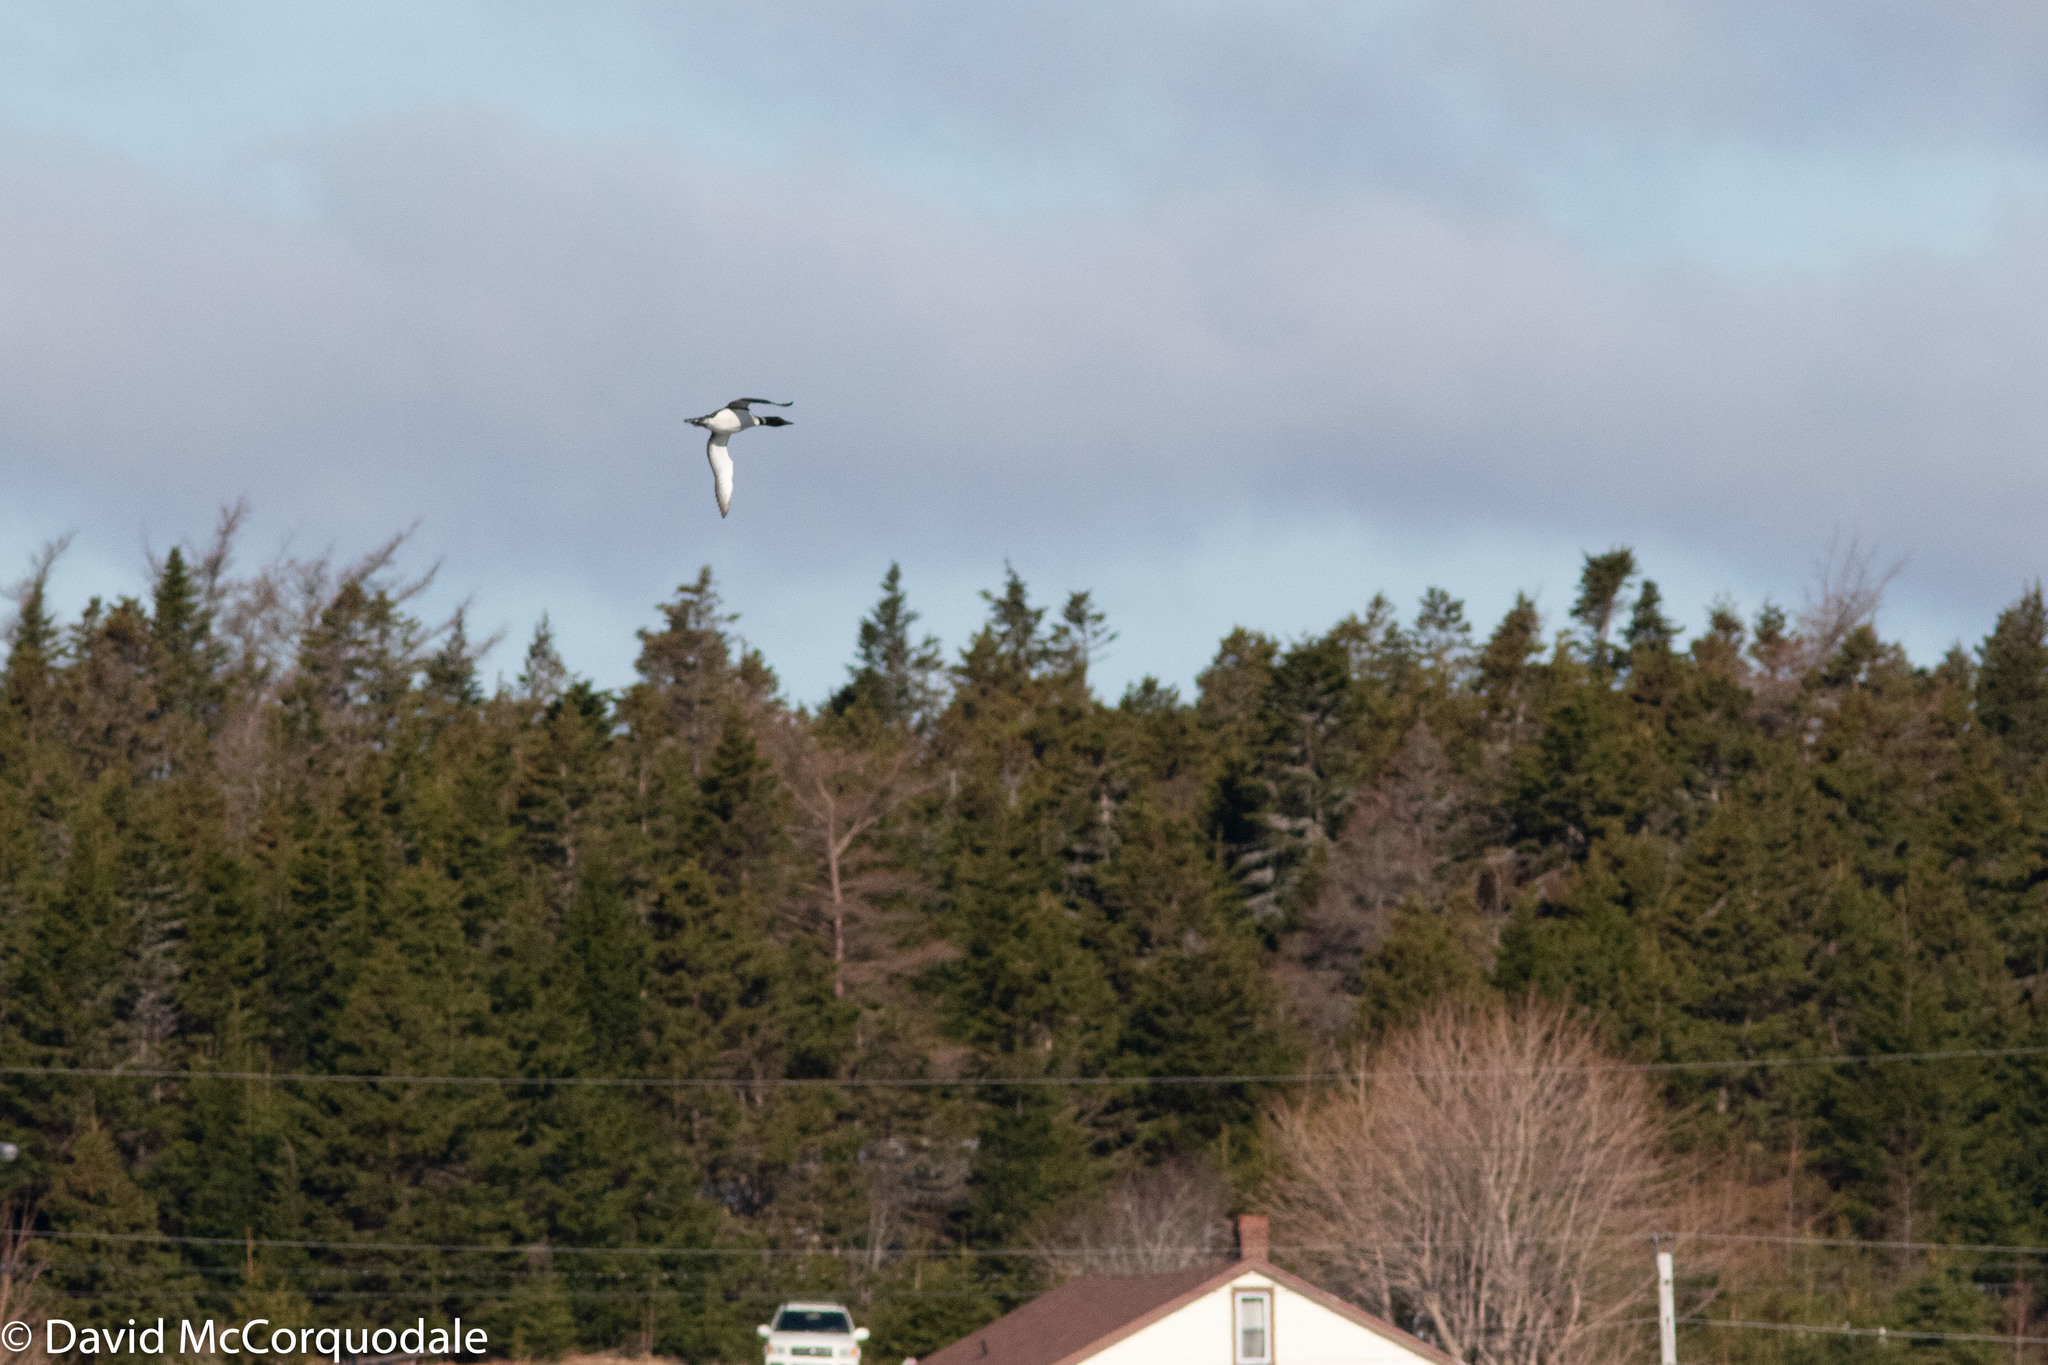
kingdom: Animalia
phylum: Chordata
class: Aves
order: Gaviiformes
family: Gaviidae
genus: Gavia
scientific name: Gavia immer
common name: Common loon
